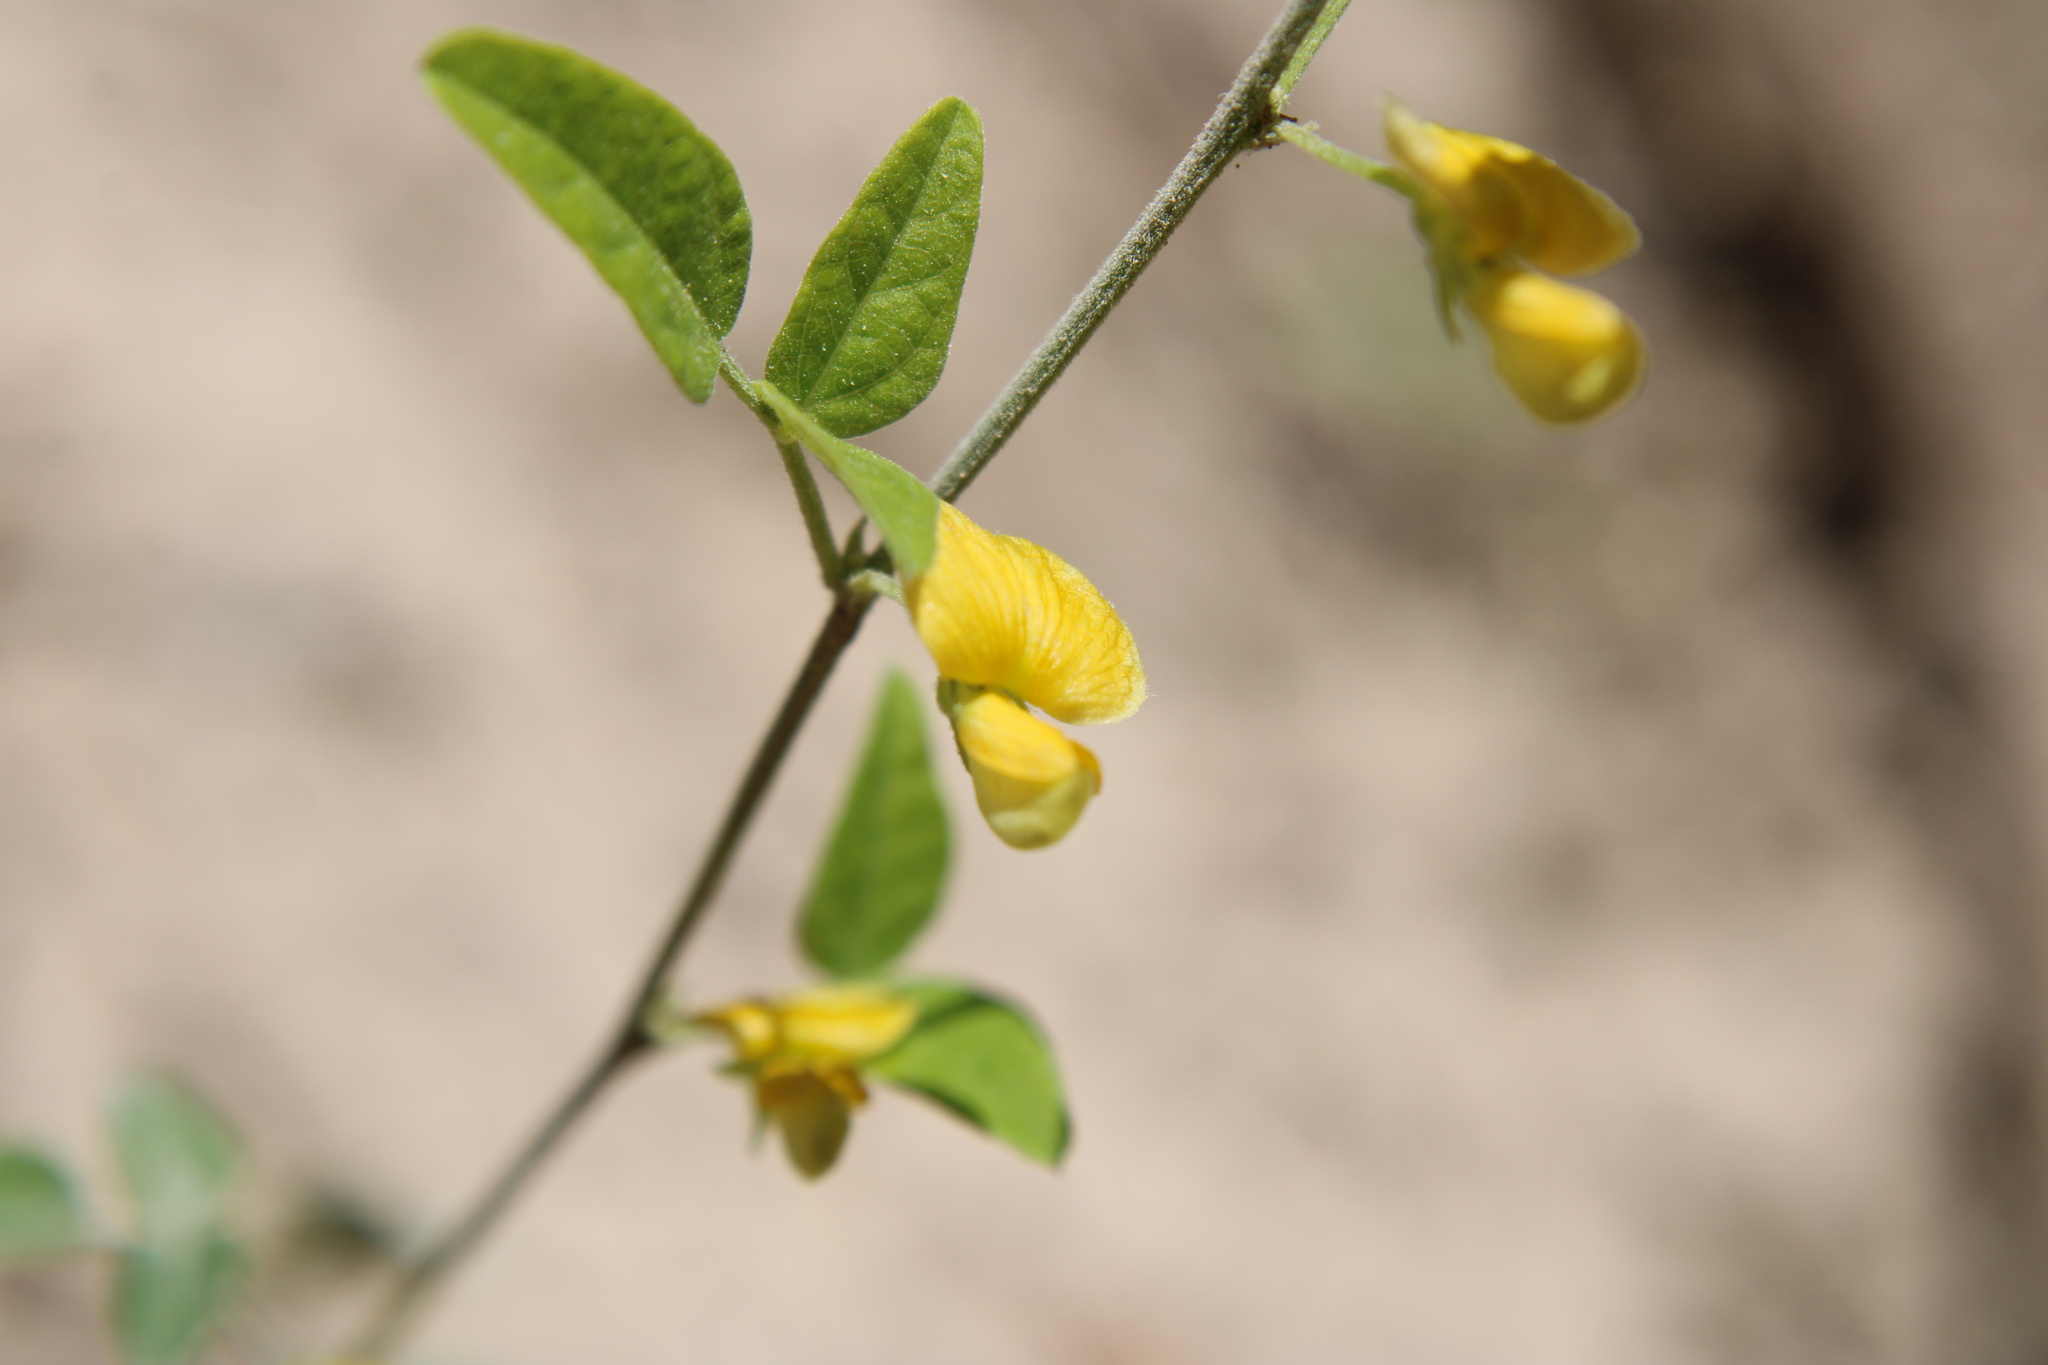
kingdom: Plantae
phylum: Tracheophyta
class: Magnoliopsida
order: Fabales
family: Fabaceae
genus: Rhynchosia
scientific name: Rhynchosia senna
